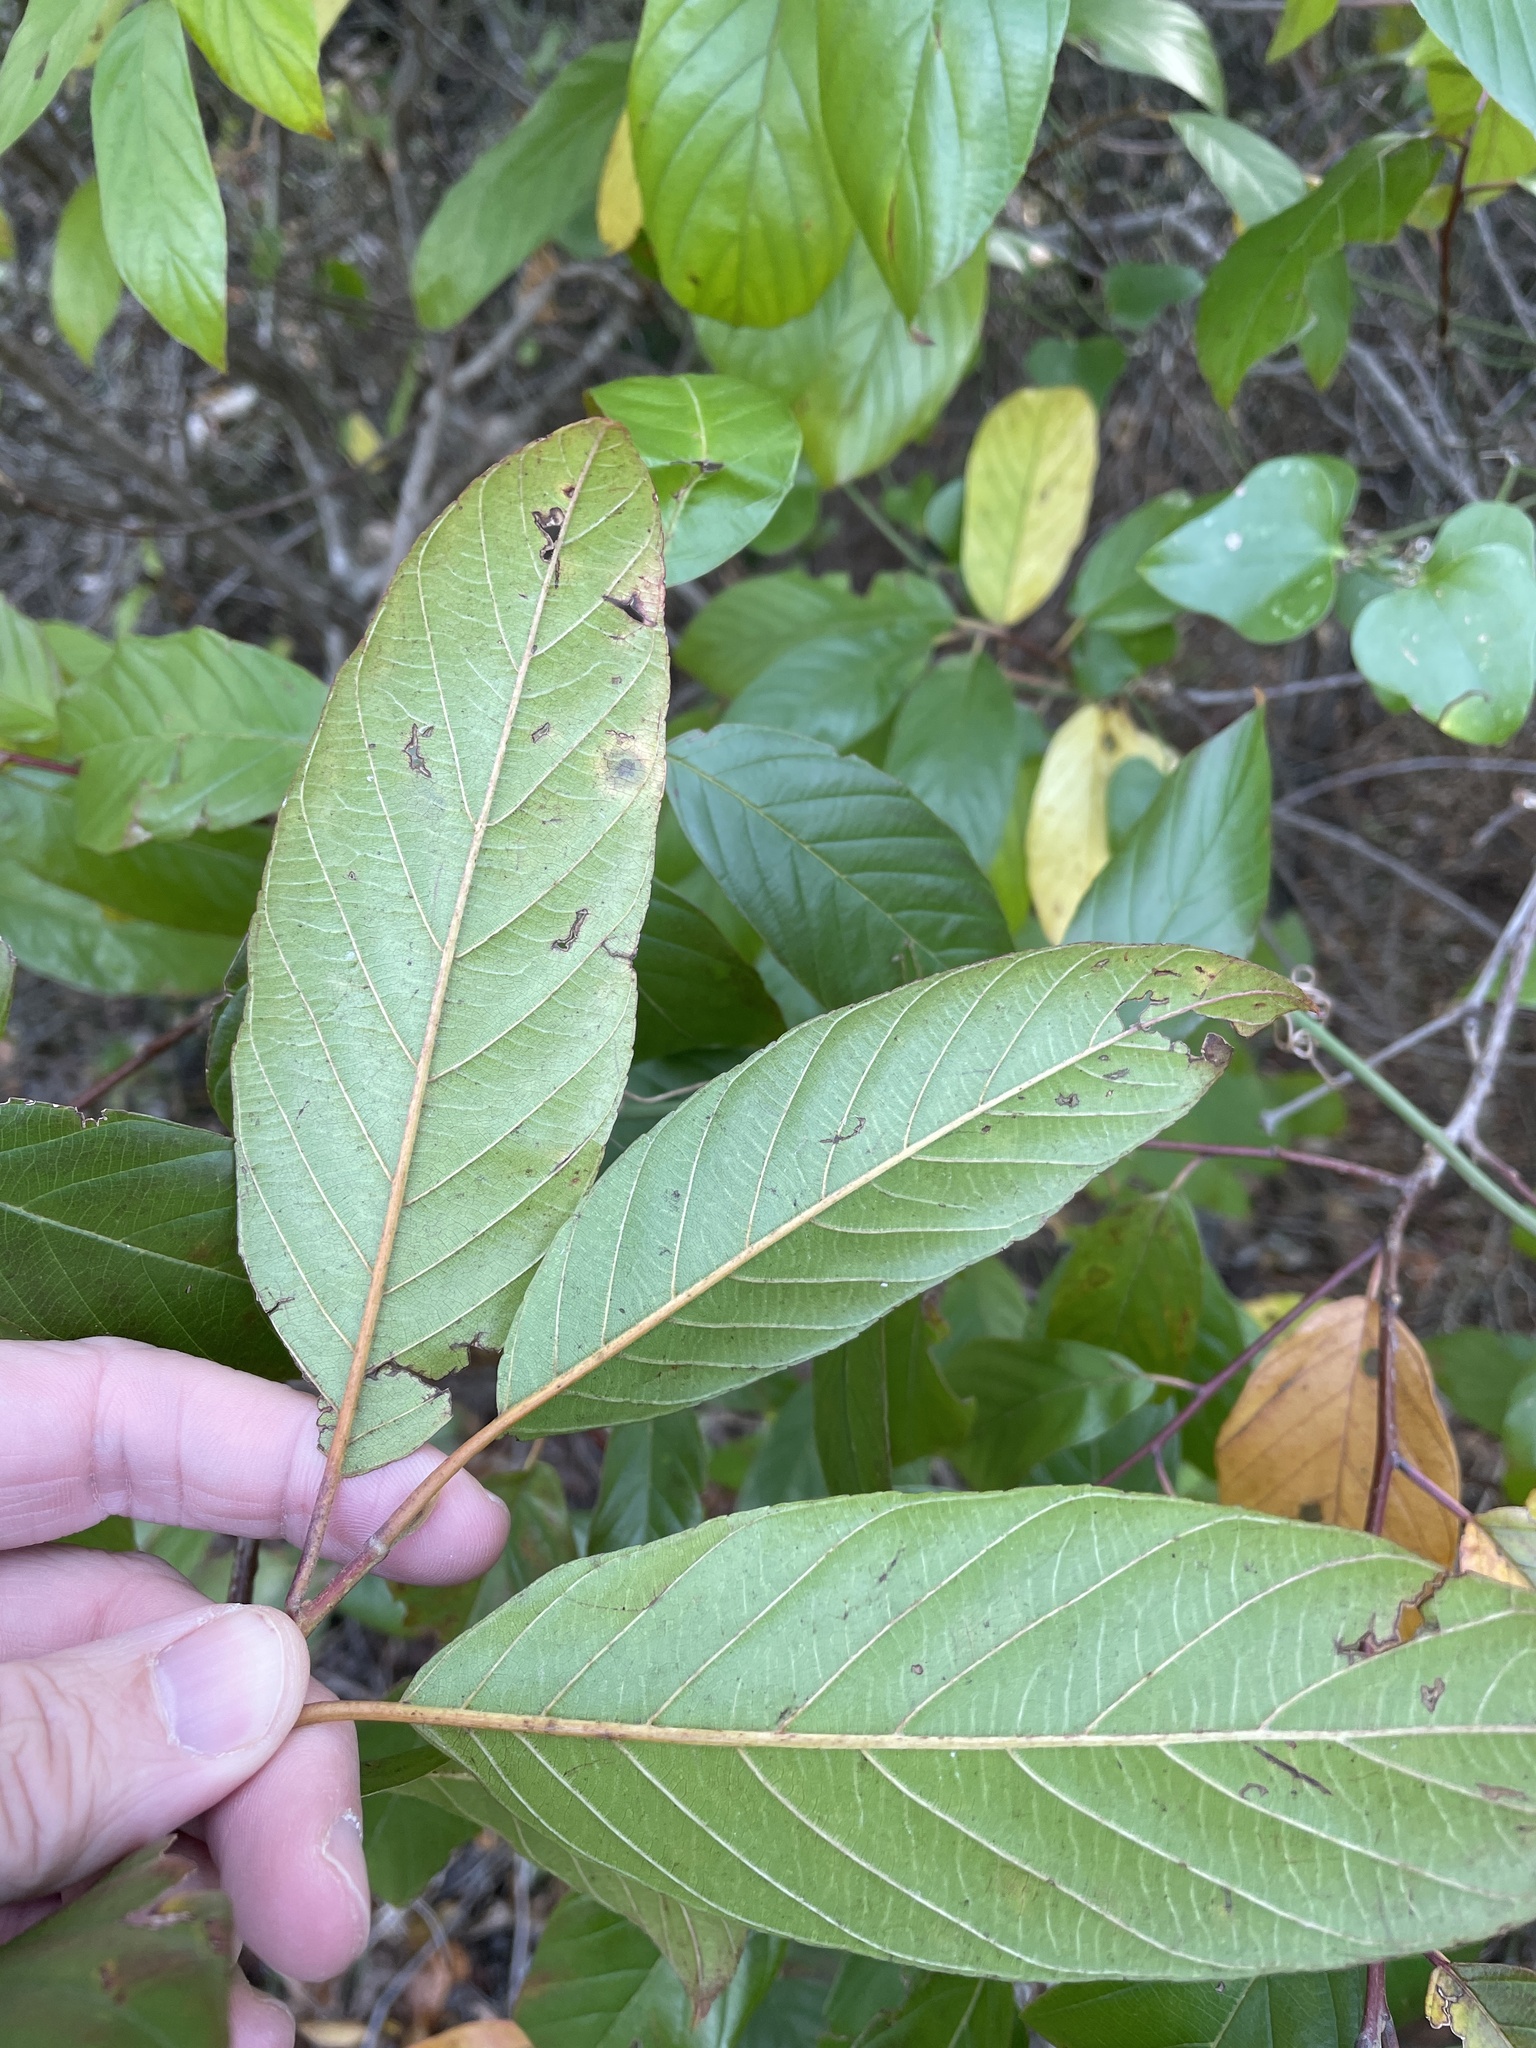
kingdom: Plantae
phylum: Tracheophyta
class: Magnoliopsida
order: Rosales
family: Rhamnaceae
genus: Frangula
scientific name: Frangula caroliniana
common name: Carolina buckthorn
